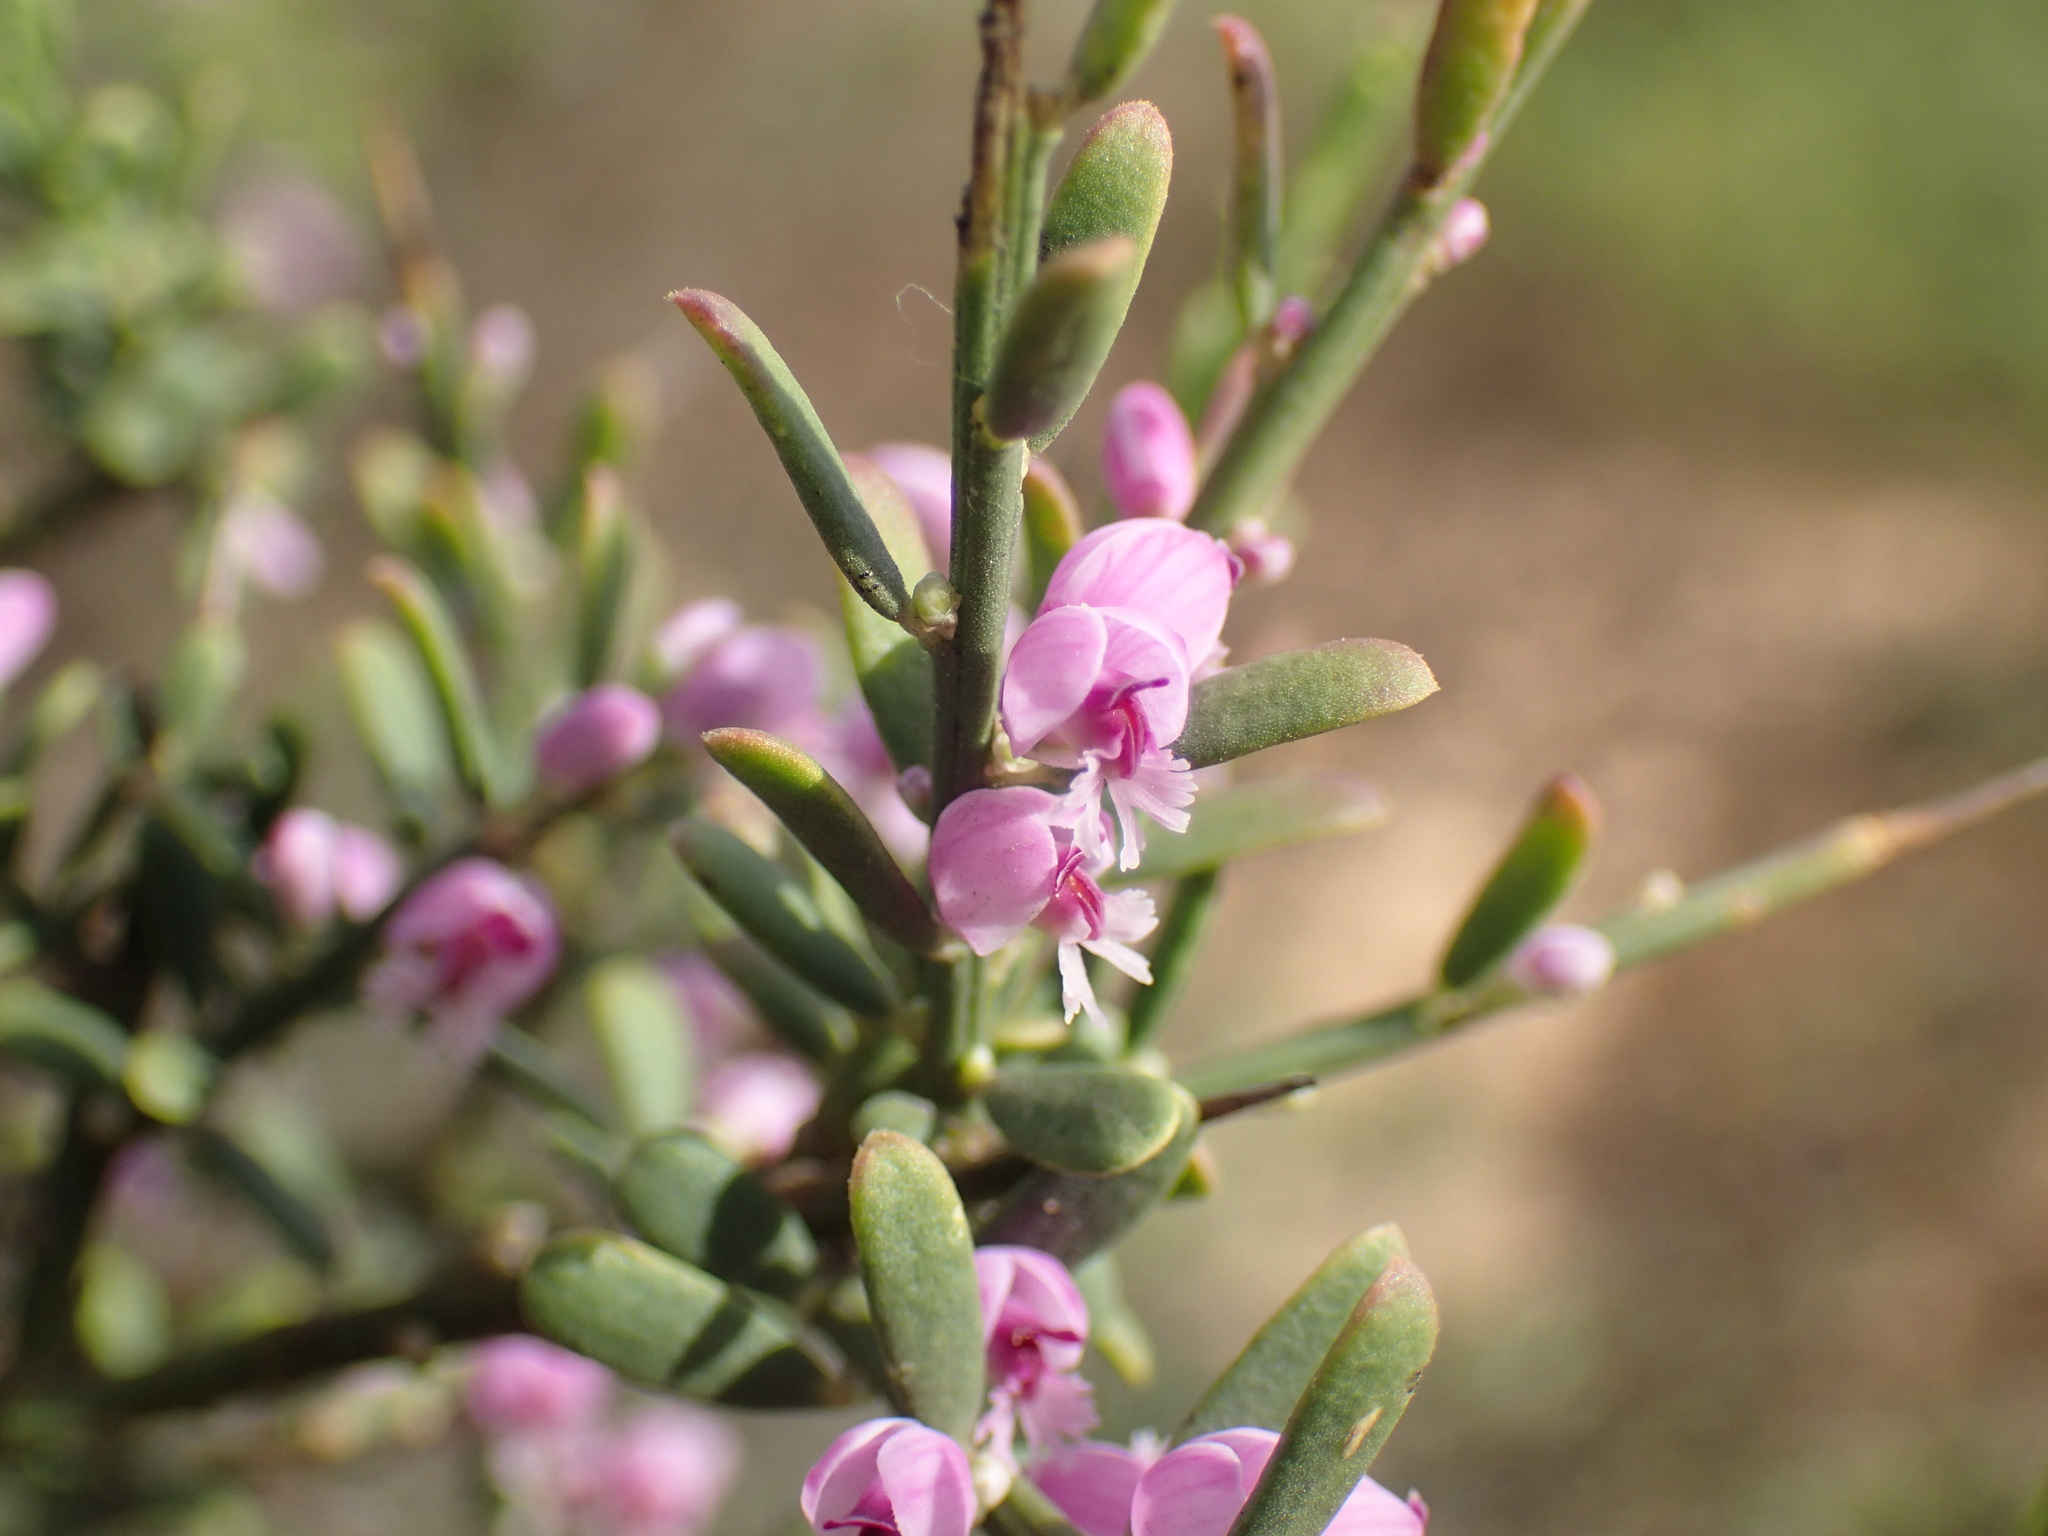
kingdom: Plantae
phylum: Tracheophyta
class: Magnoliopsida
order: Fabales
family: Polygalaceae
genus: Muraltia
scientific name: Muraltia spinosa
